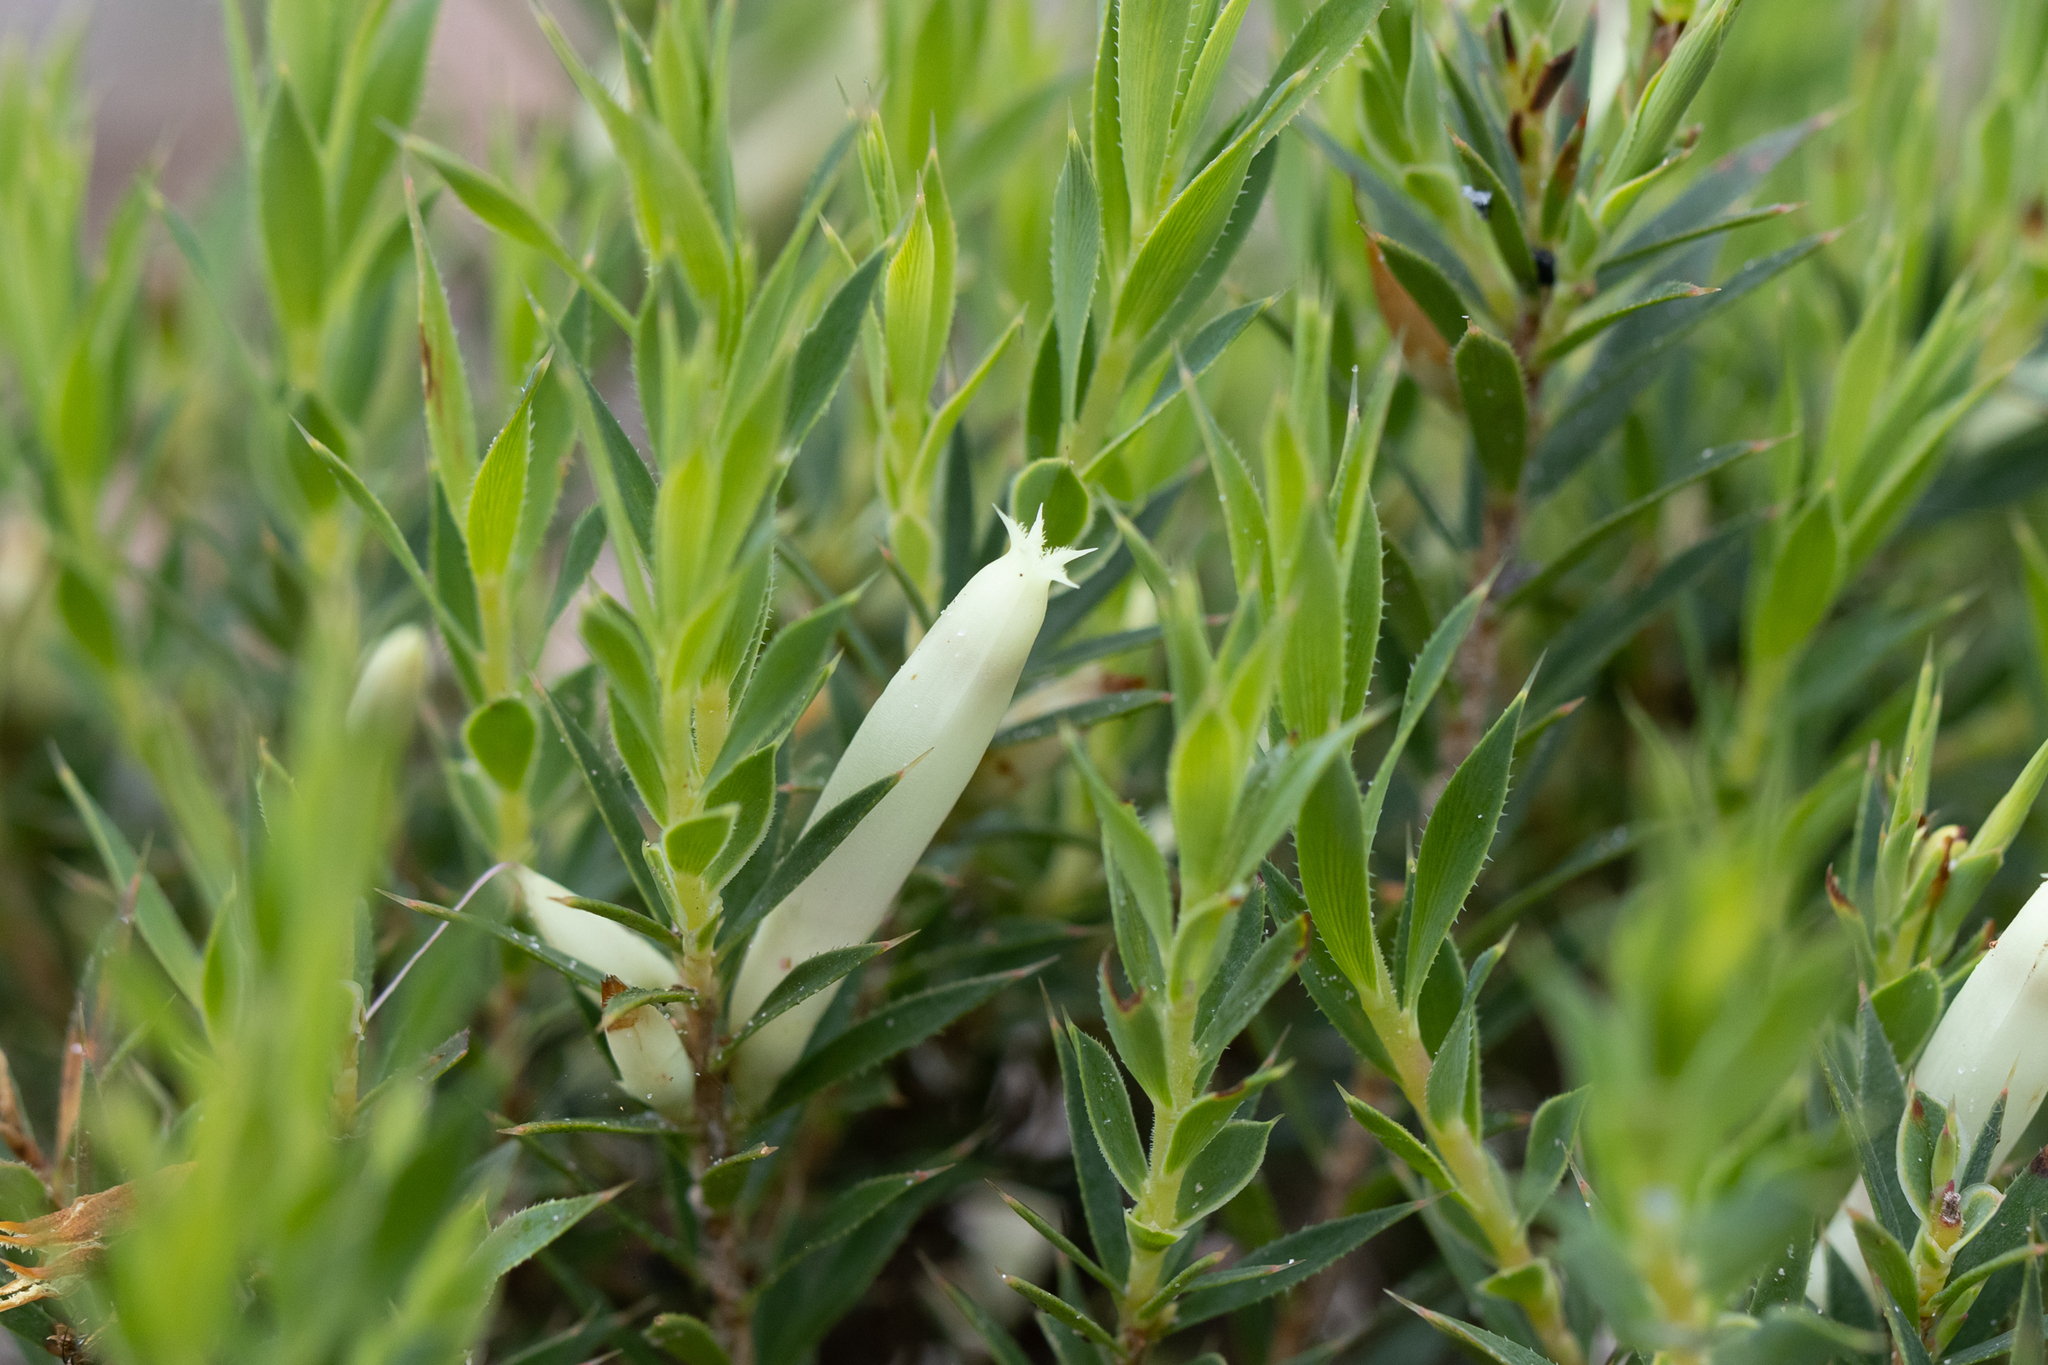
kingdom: Plantae
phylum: Tracheophyta
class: Magnoliopsida
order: Ericales
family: Ericaceae
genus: Styphelia
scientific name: Styphelia pallida
